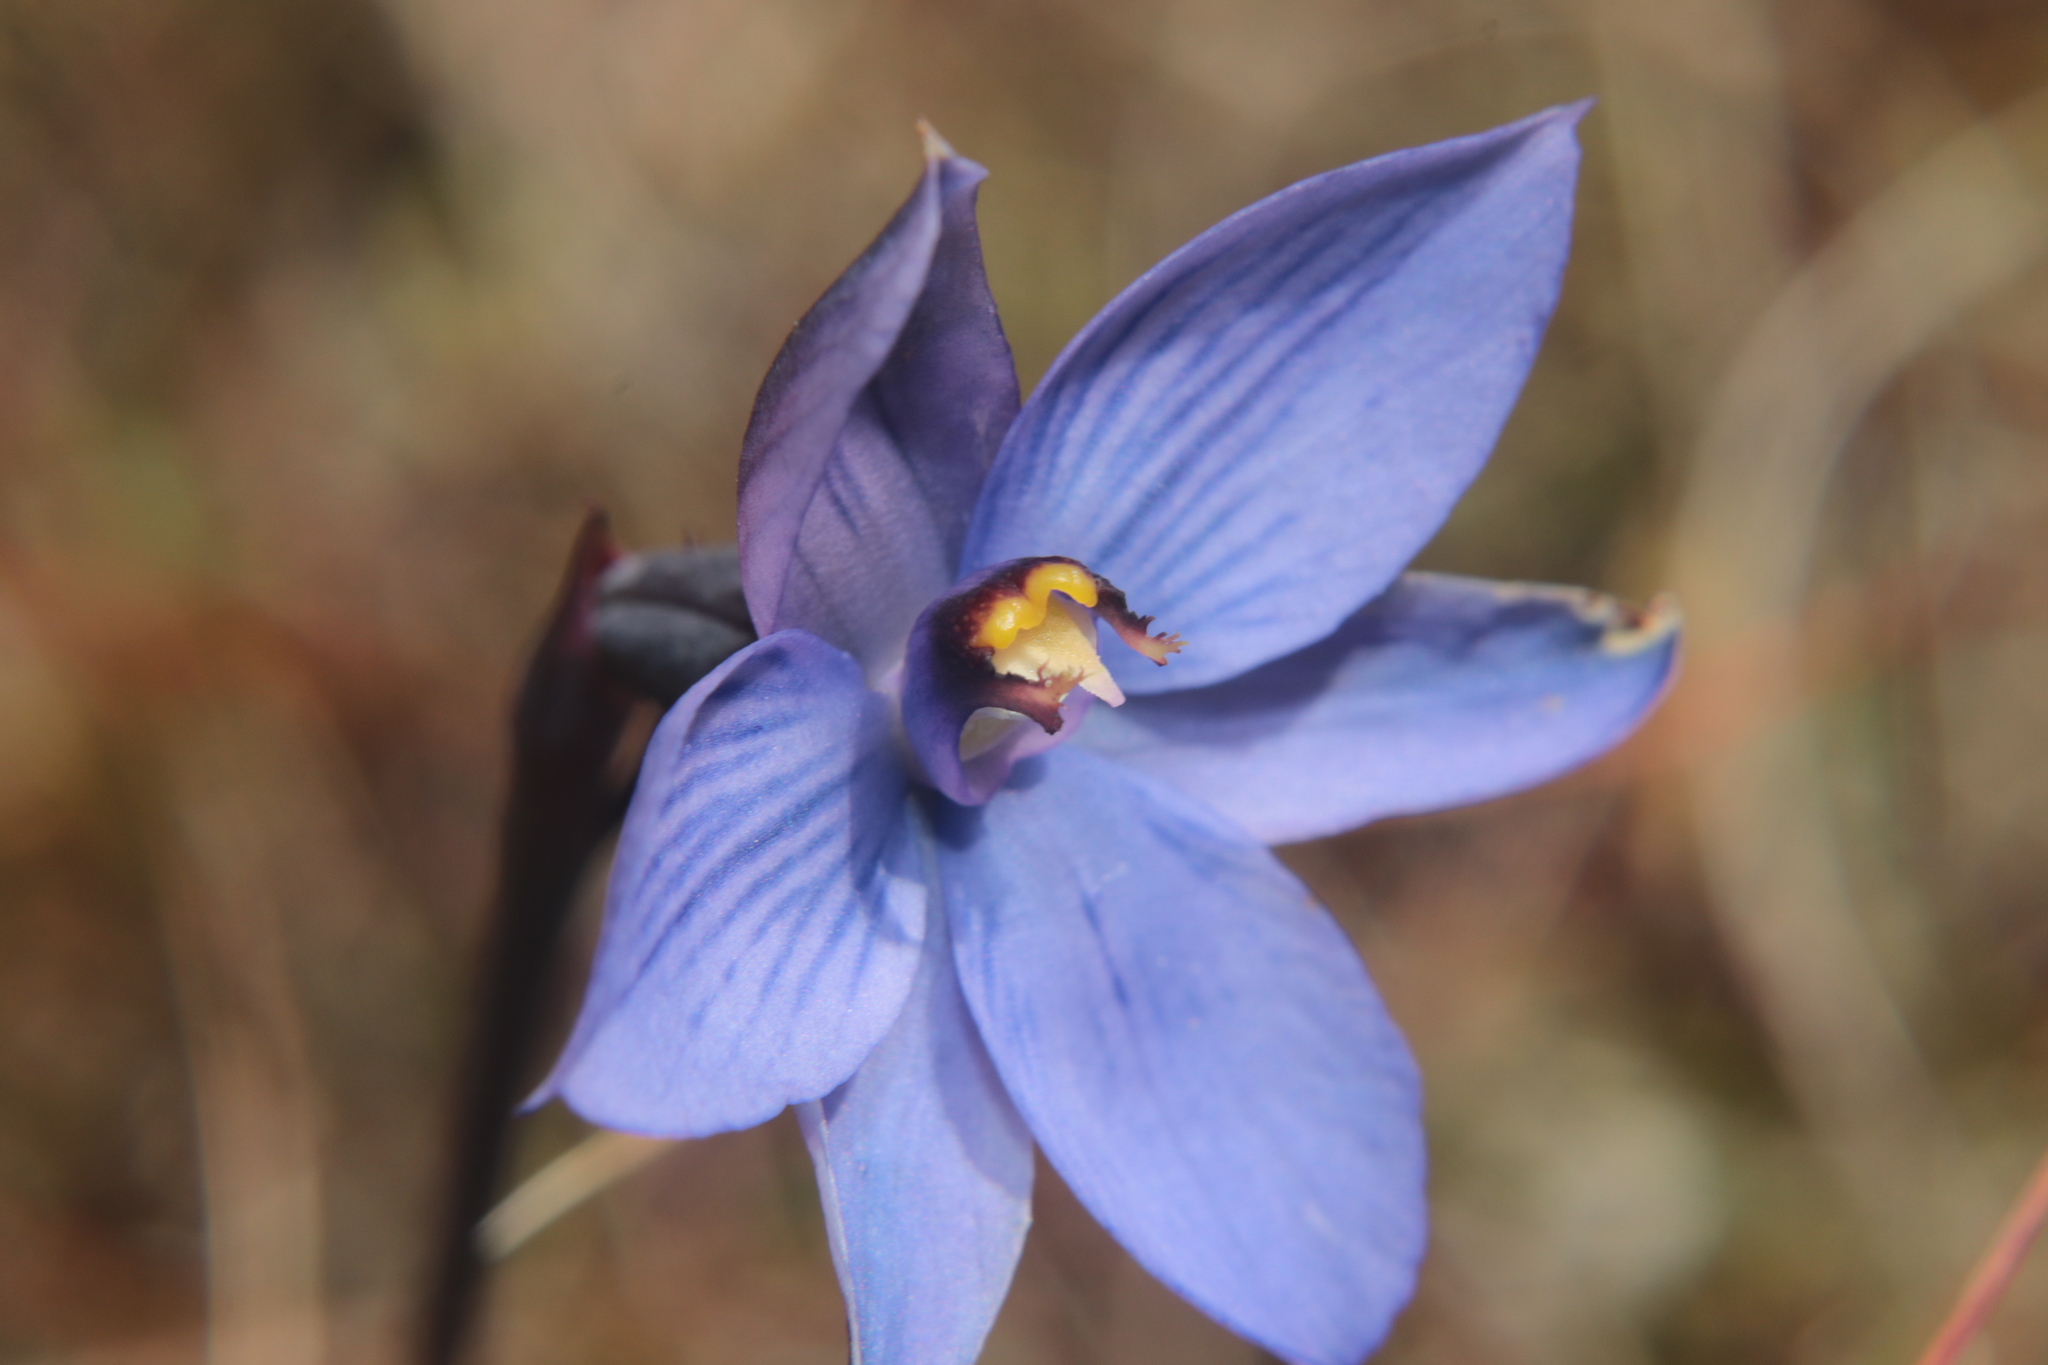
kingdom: Plantae
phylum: Tracheophyta
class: Liliopsida
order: Asparagales
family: Orchidaceae
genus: Thelymitra
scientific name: Thelymitra pulchella
